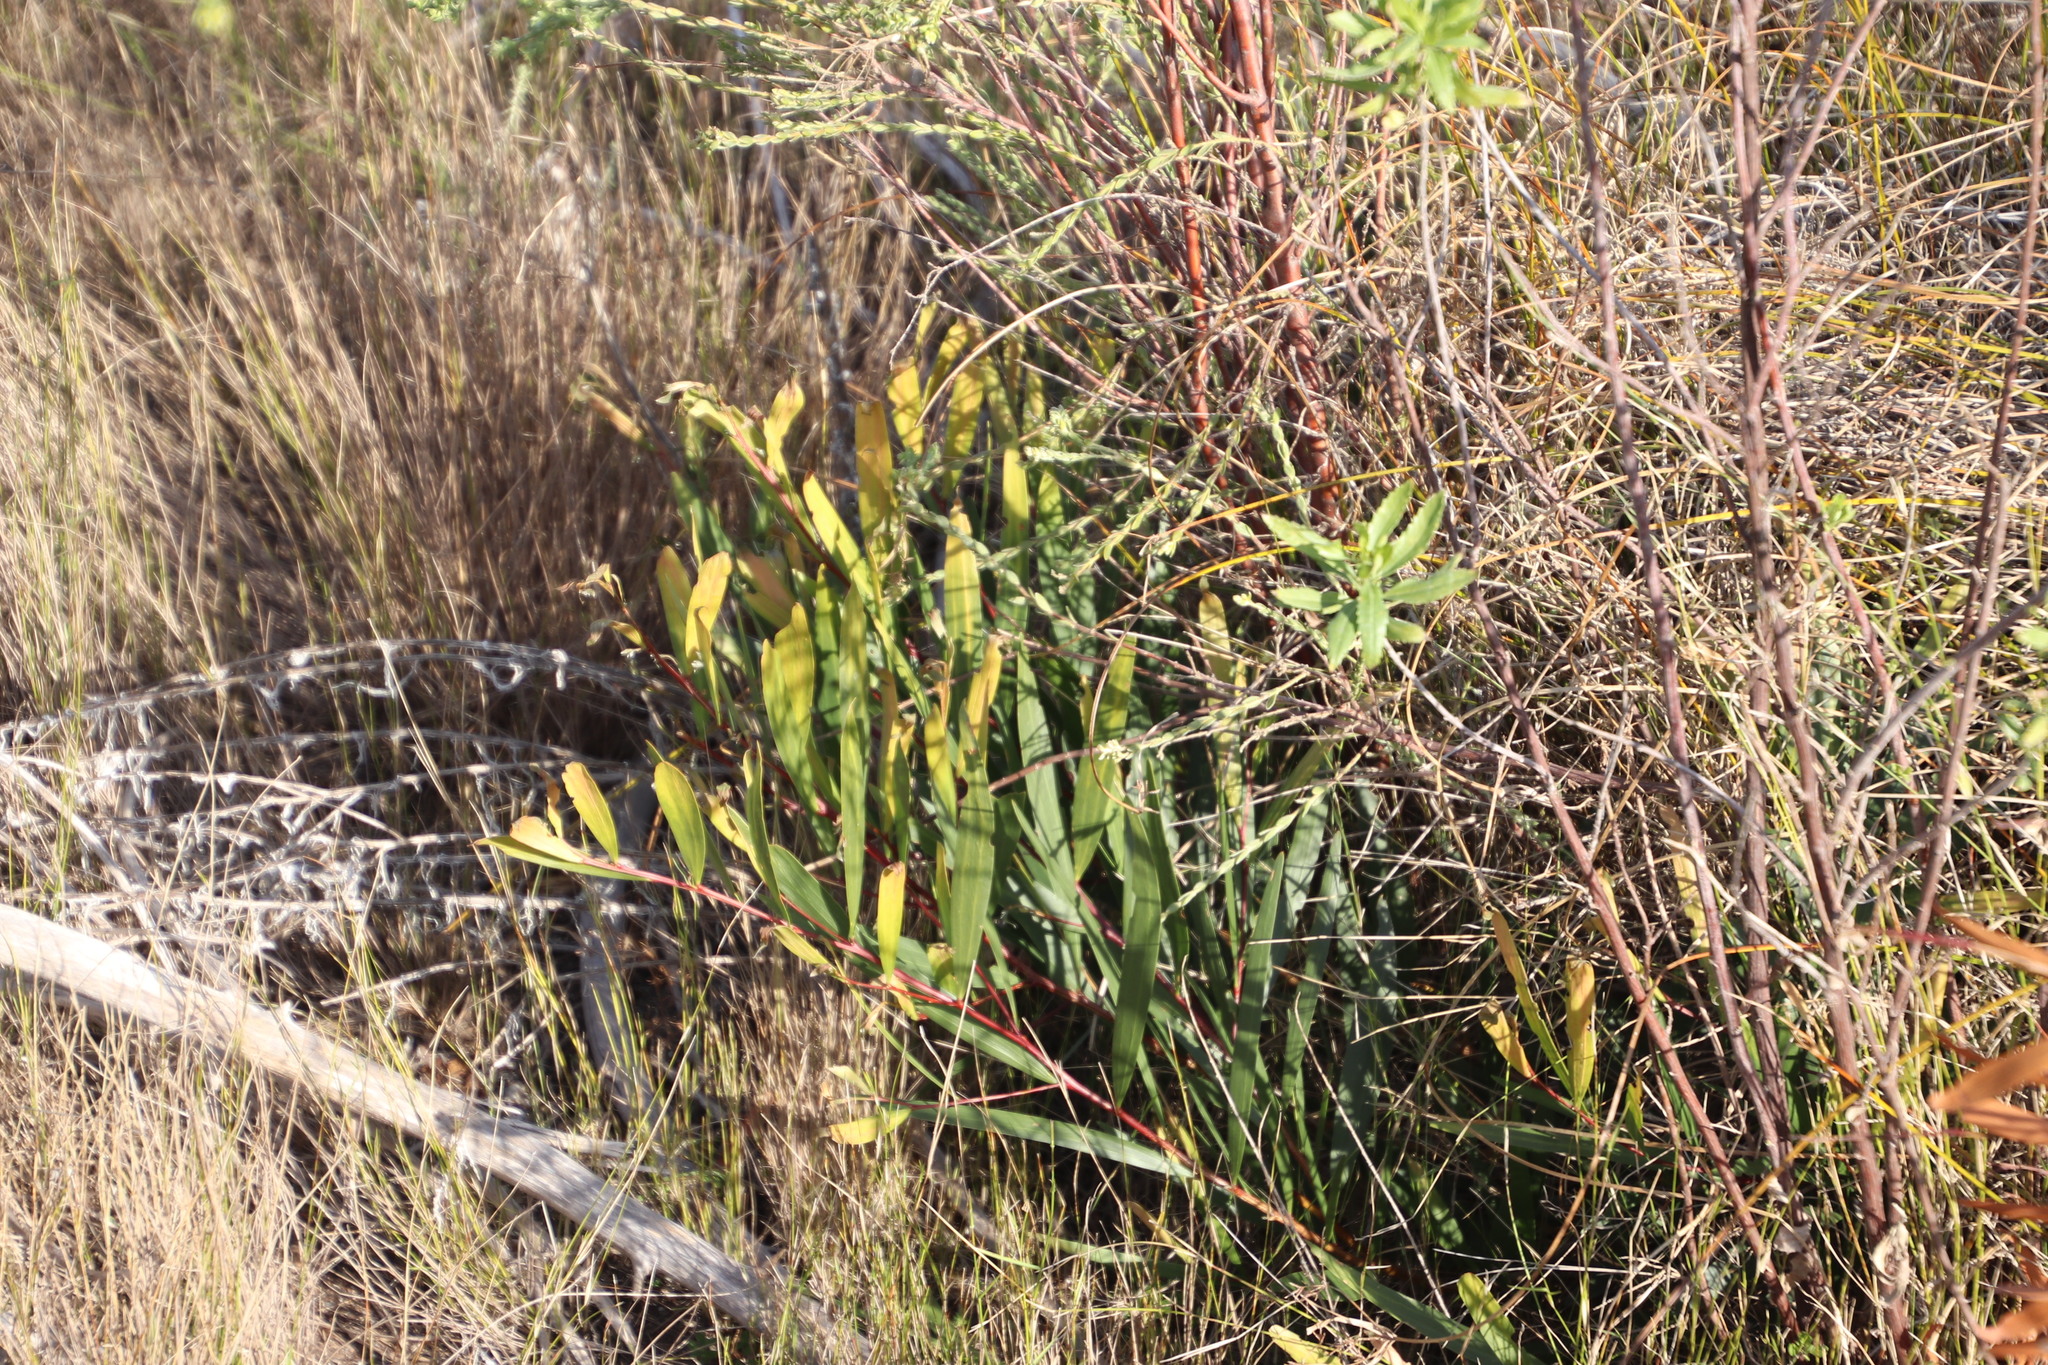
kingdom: Plantae
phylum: Tracheophyta
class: Magnoliopsida
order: Fabales
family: Fabaceae
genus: Acacia
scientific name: Acacia longifolia
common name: Sydney golden wattle
